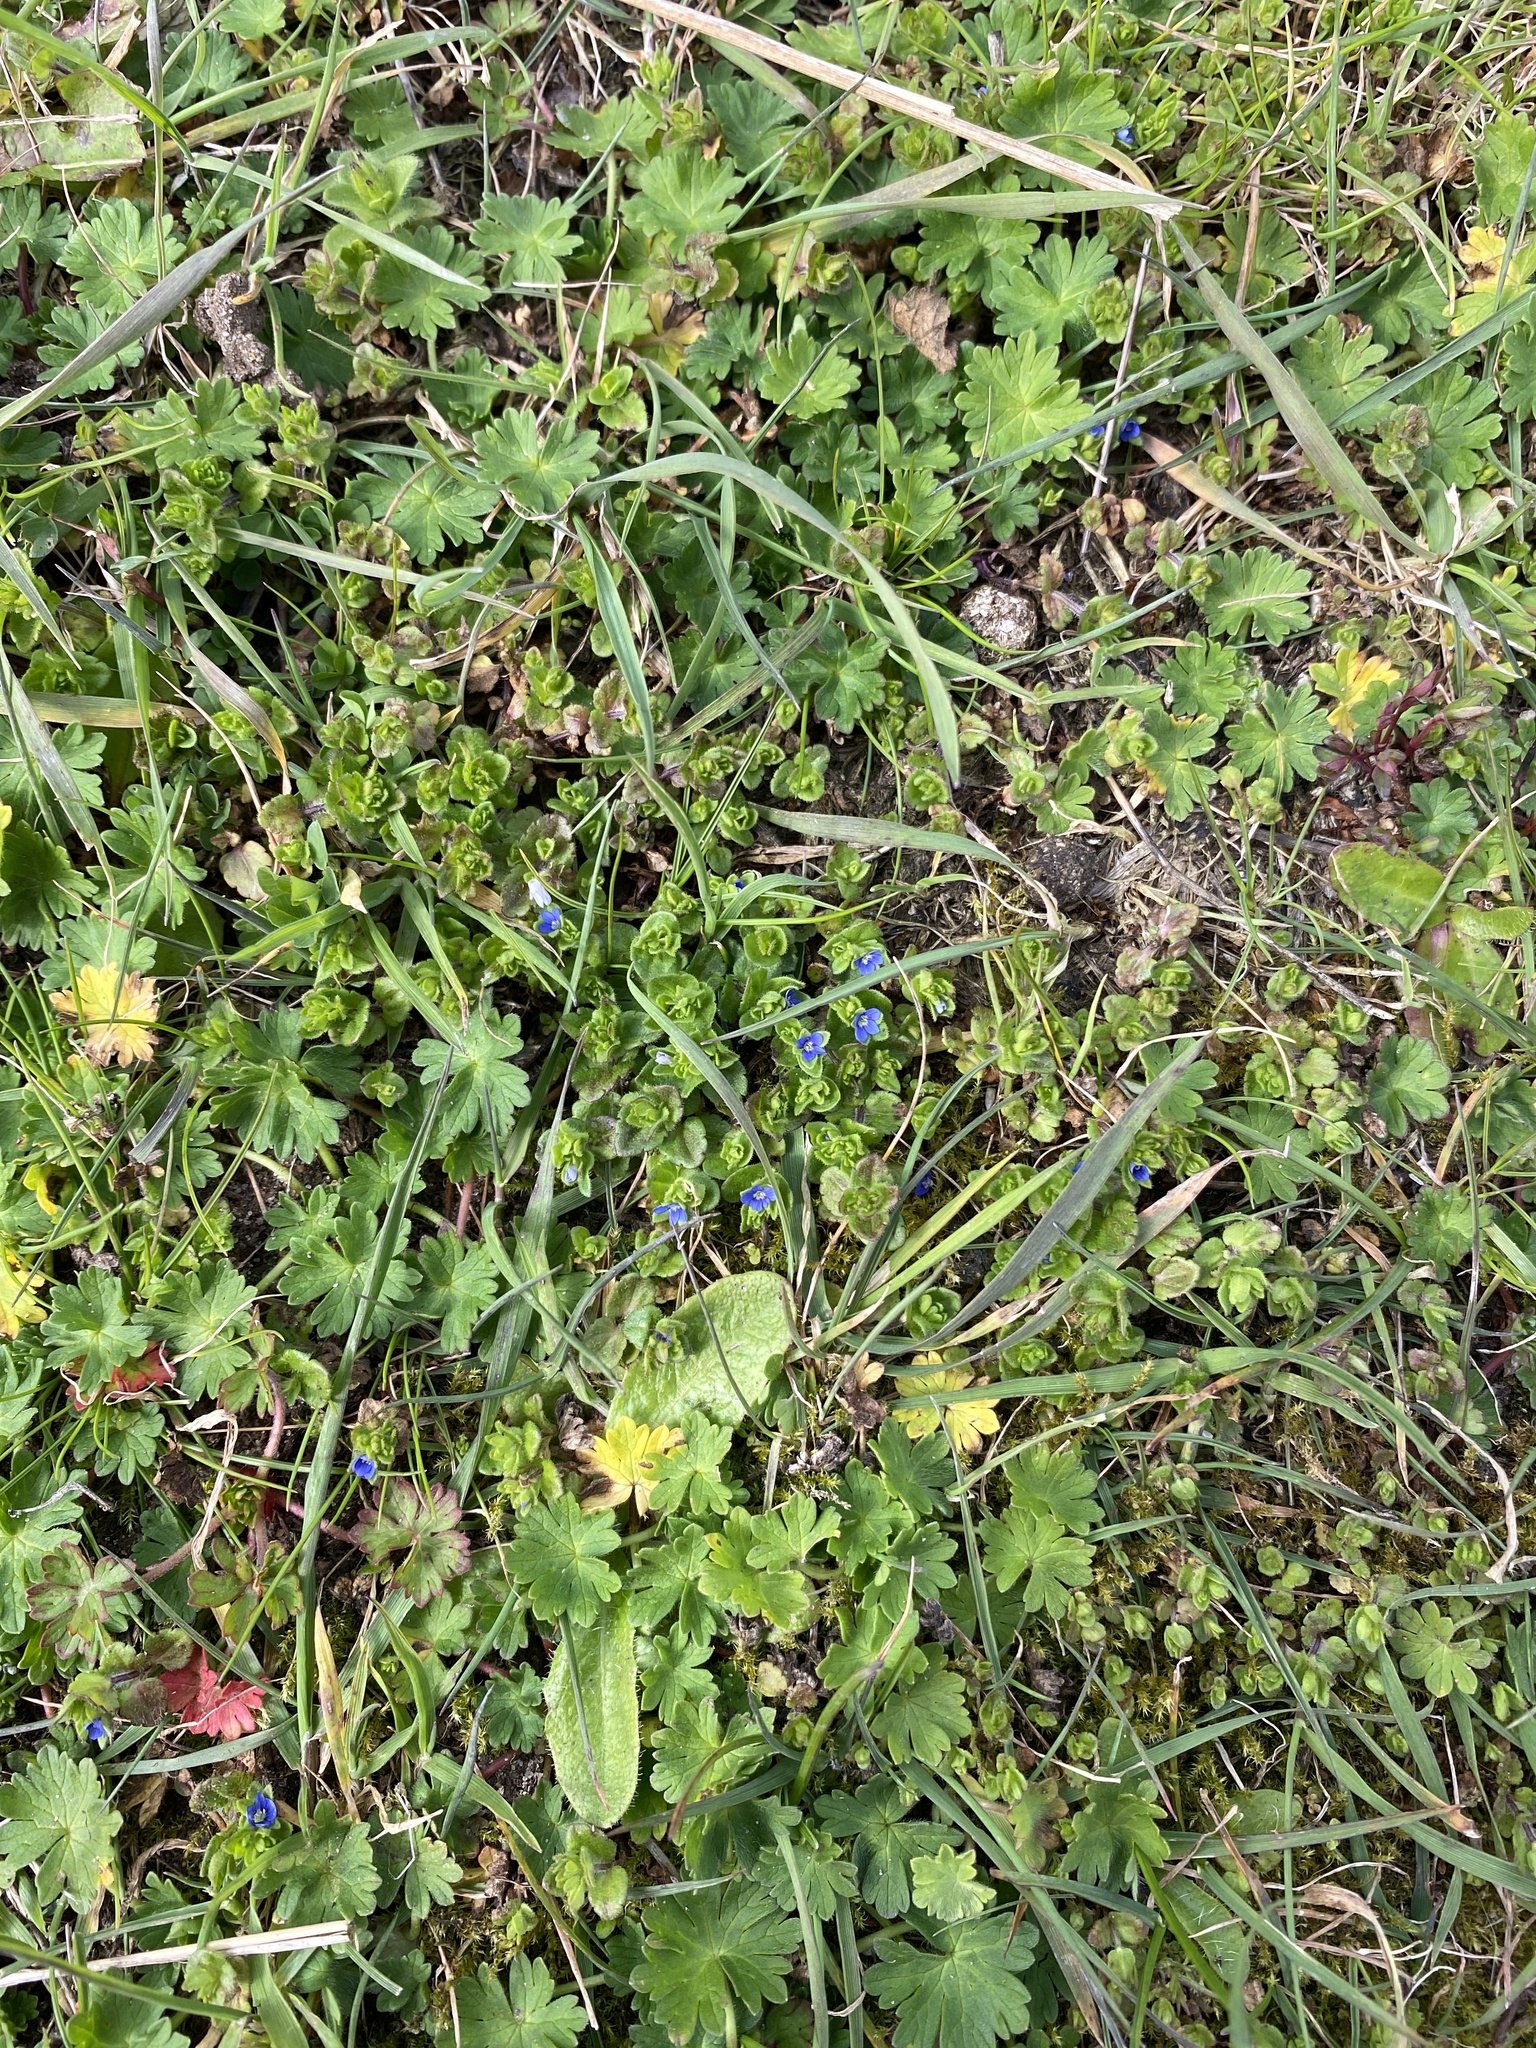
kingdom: Plantae
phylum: Tracheophyta
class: Magnoliopsida
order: Lamiales
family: Plantaginaceae
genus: Veronica
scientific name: Veronica arvensis
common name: Corn speedwell
